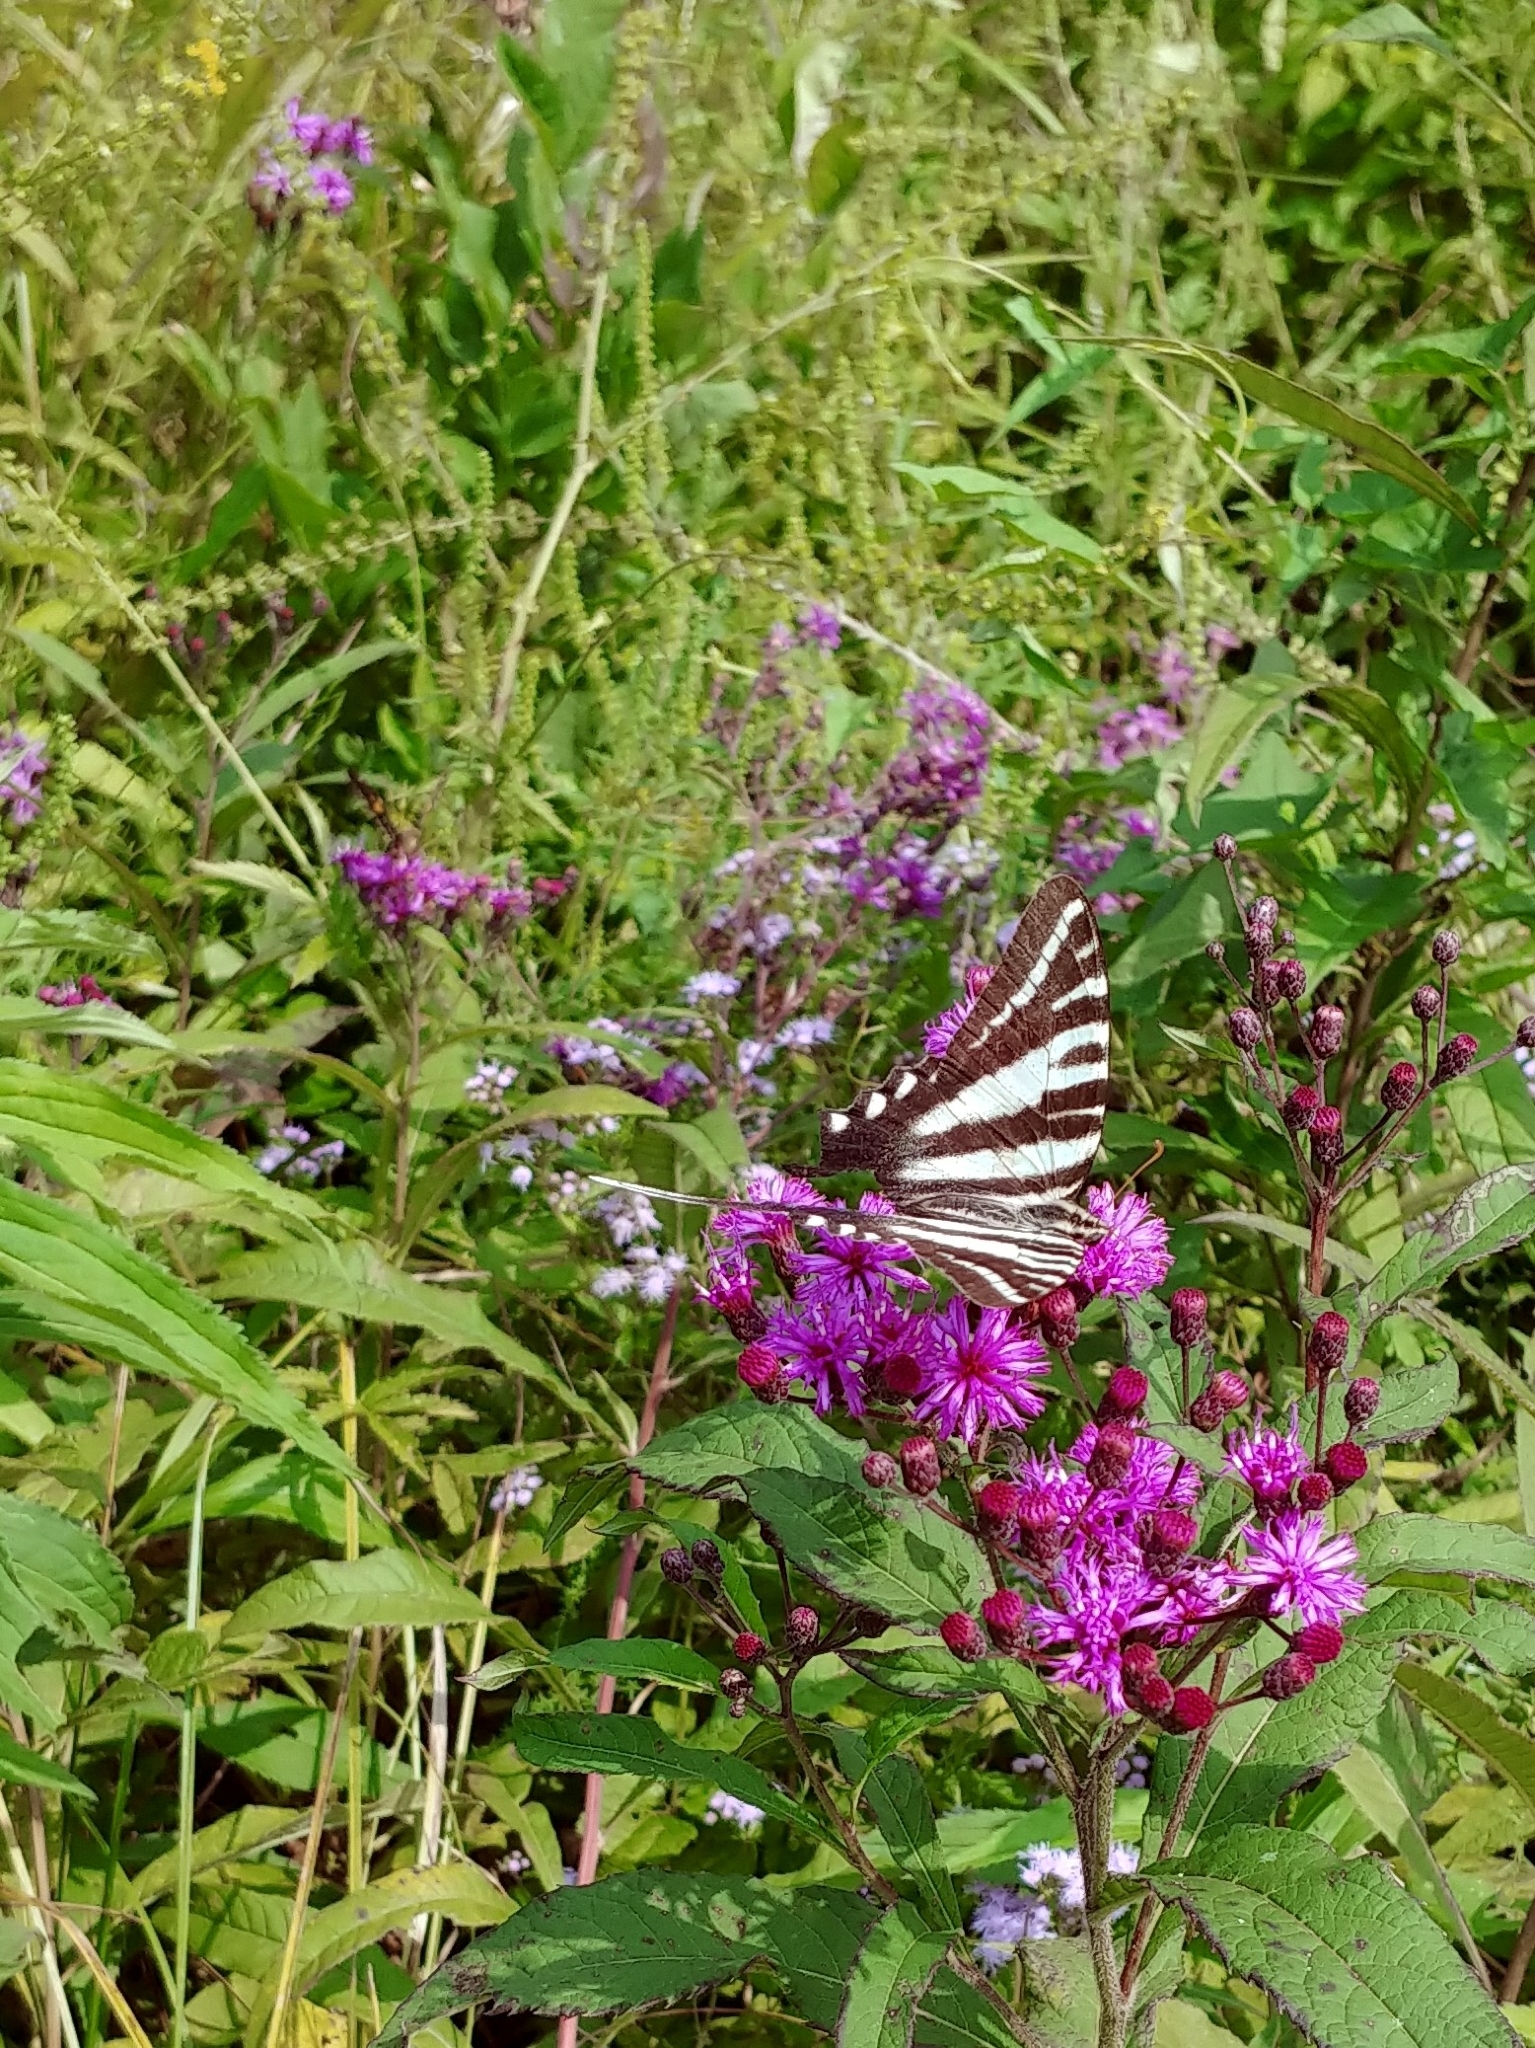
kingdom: Animalia
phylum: Arthropoda
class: Insecta
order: Lepidoptera
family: Papilionidae
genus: Protographium
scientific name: Protographium marcellus
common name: Zebra swallowtail
